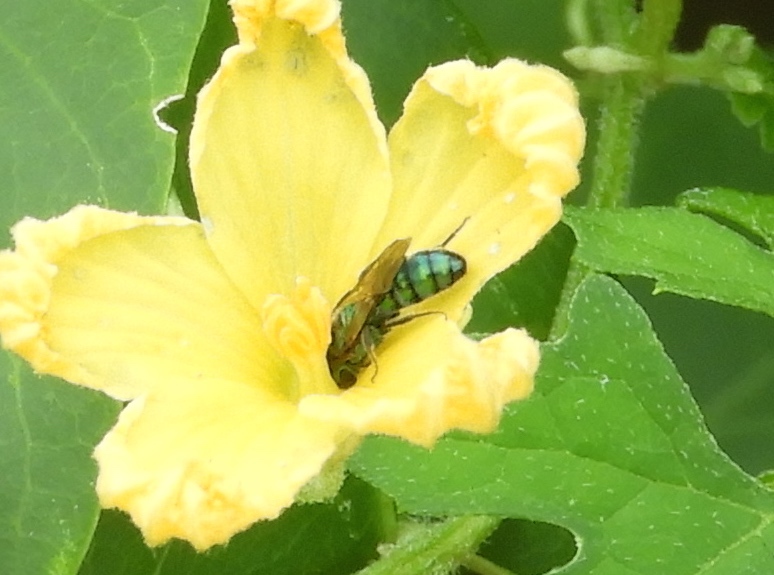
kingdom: Animalia
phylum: Arthropoda
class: Insecta
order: Hymenoptera
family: Halictidae
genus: Pseudaugochlora
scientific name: Pseudaugochlora graminea
